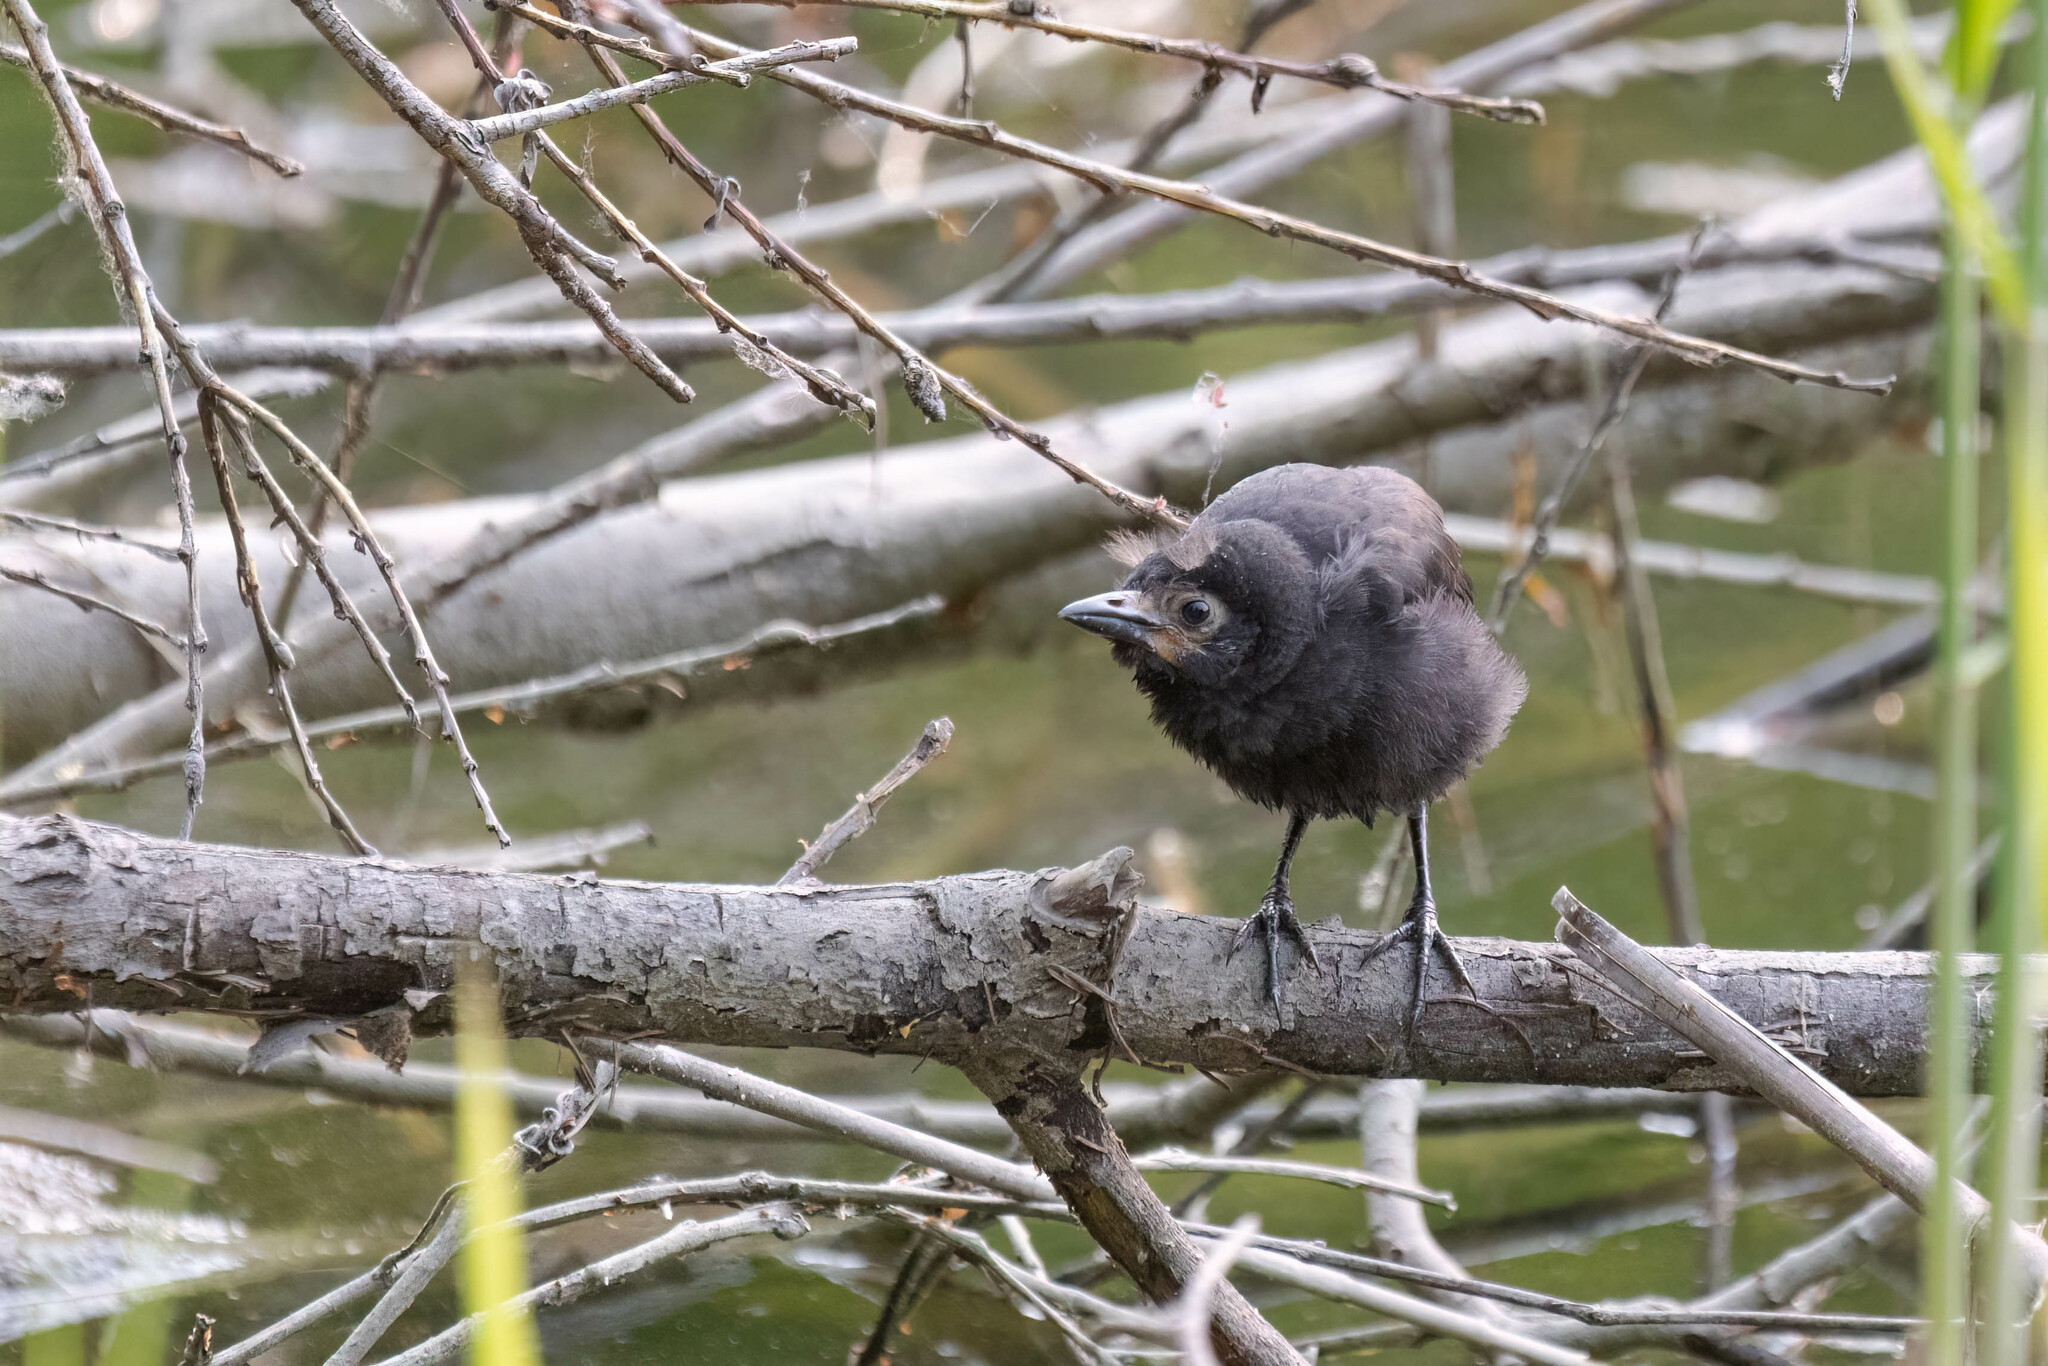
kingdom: Animalia
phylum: Chordata
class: Aves
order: Passeriformes
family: Icteridae
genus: Quiscalus
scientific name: Quiscalus quiscula
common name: Common grackle
